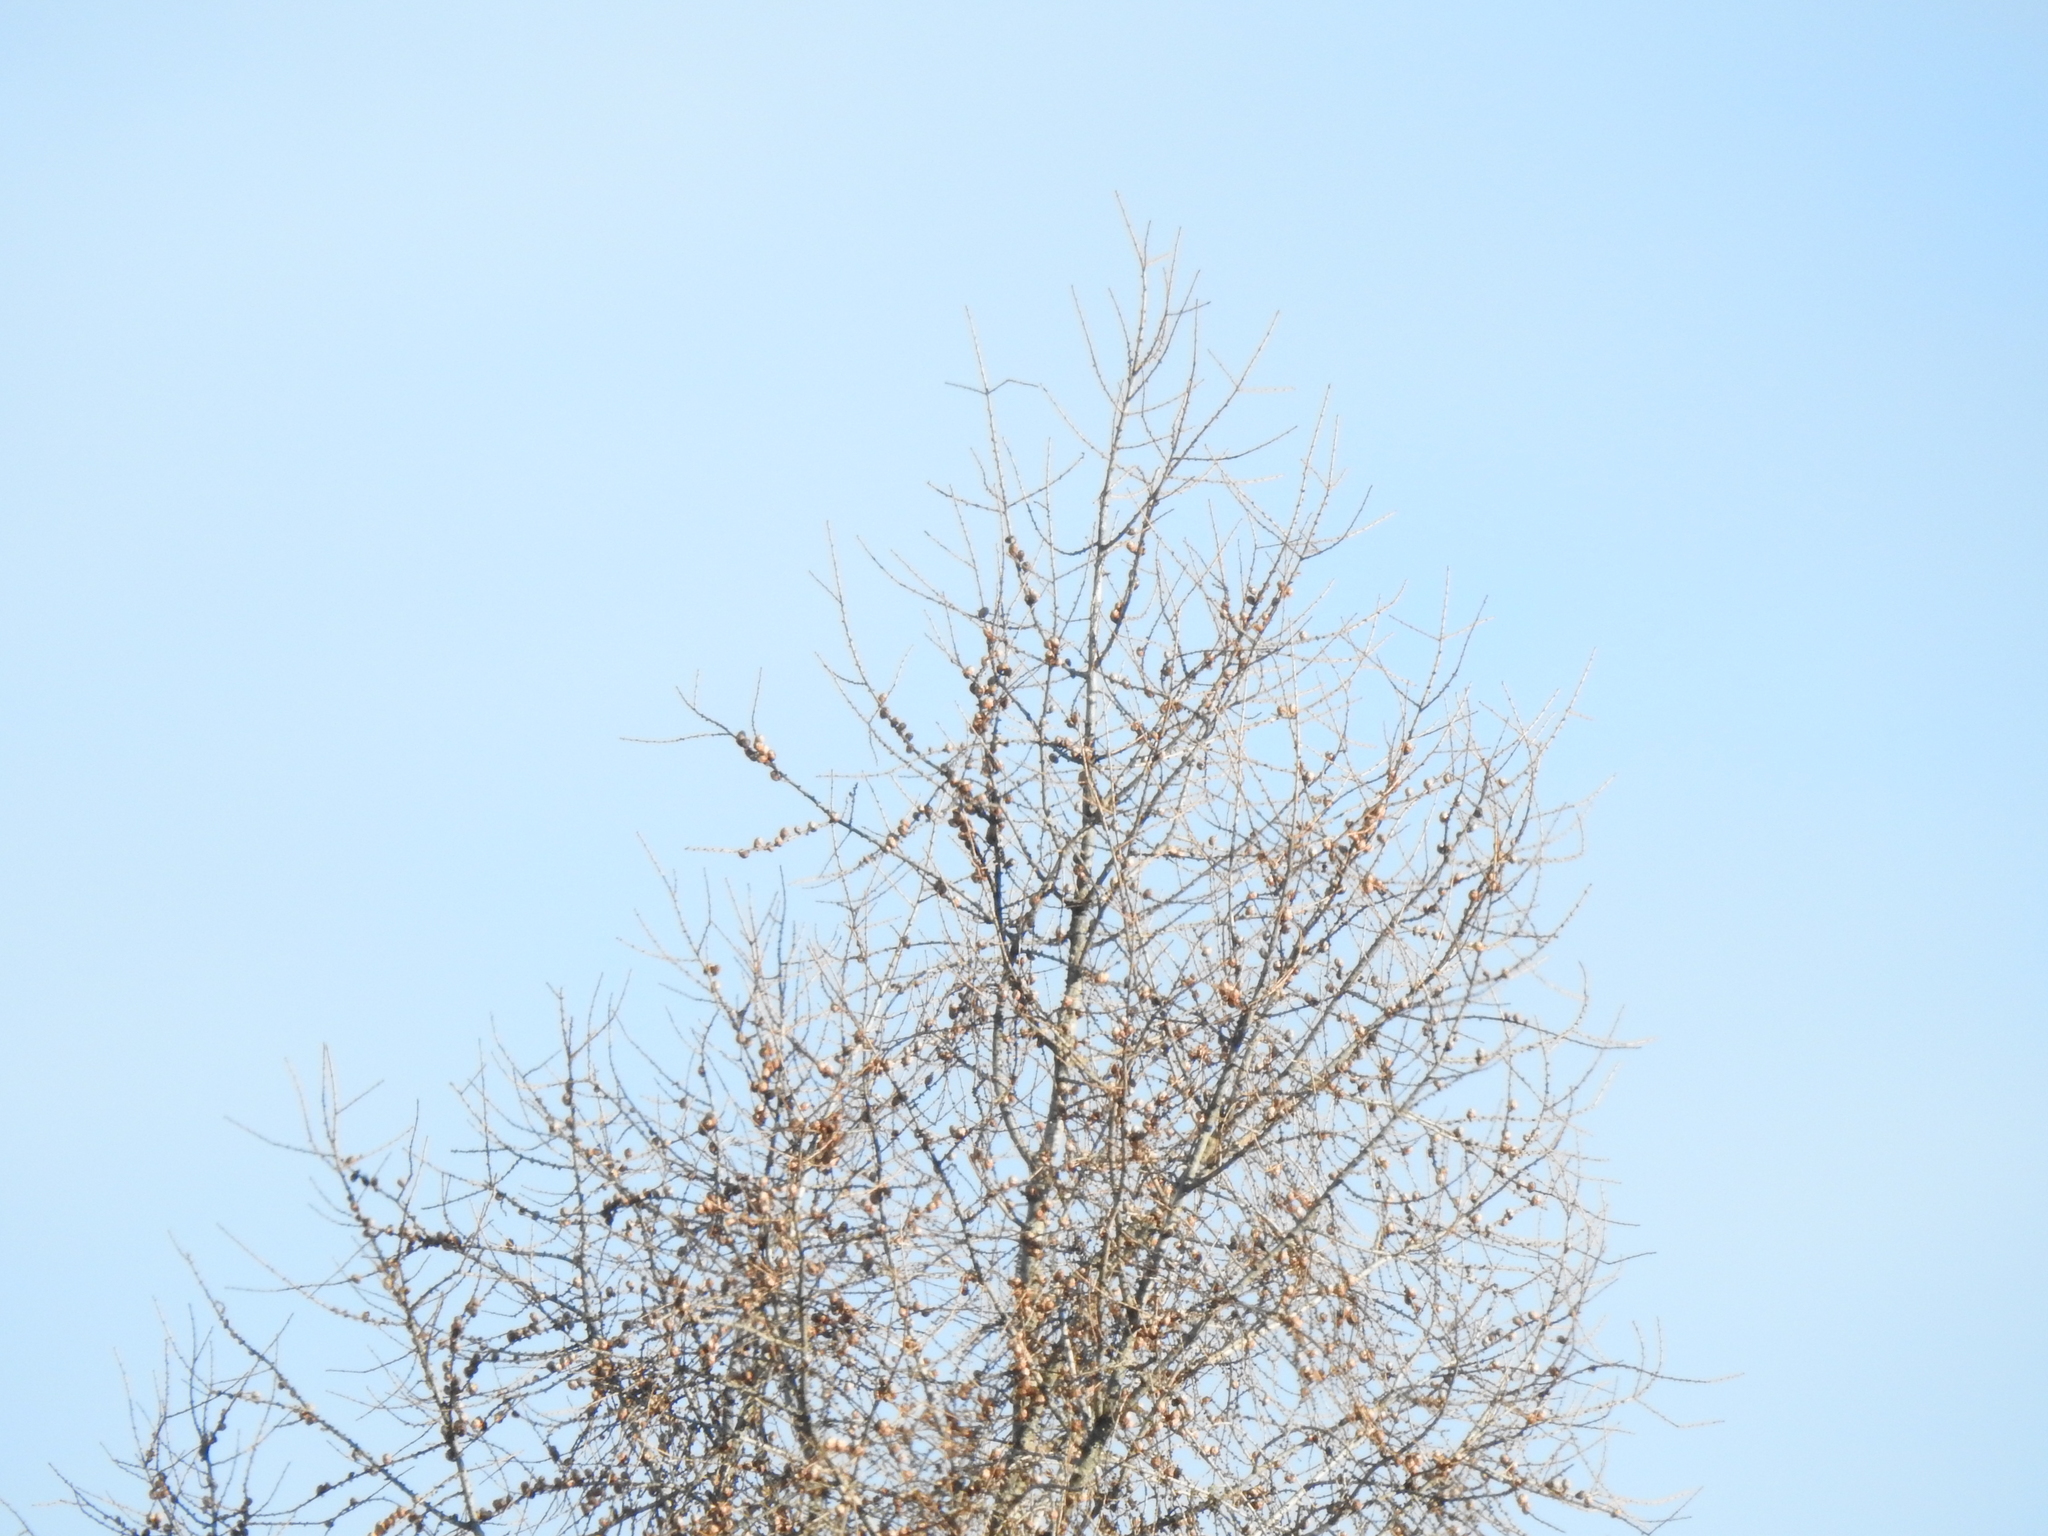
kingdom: Plantae
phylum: Tracheophyta
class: Pinopsida
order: Pinales
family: Pinaceae
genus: Larix
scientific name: Larix laricina
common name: American larch
